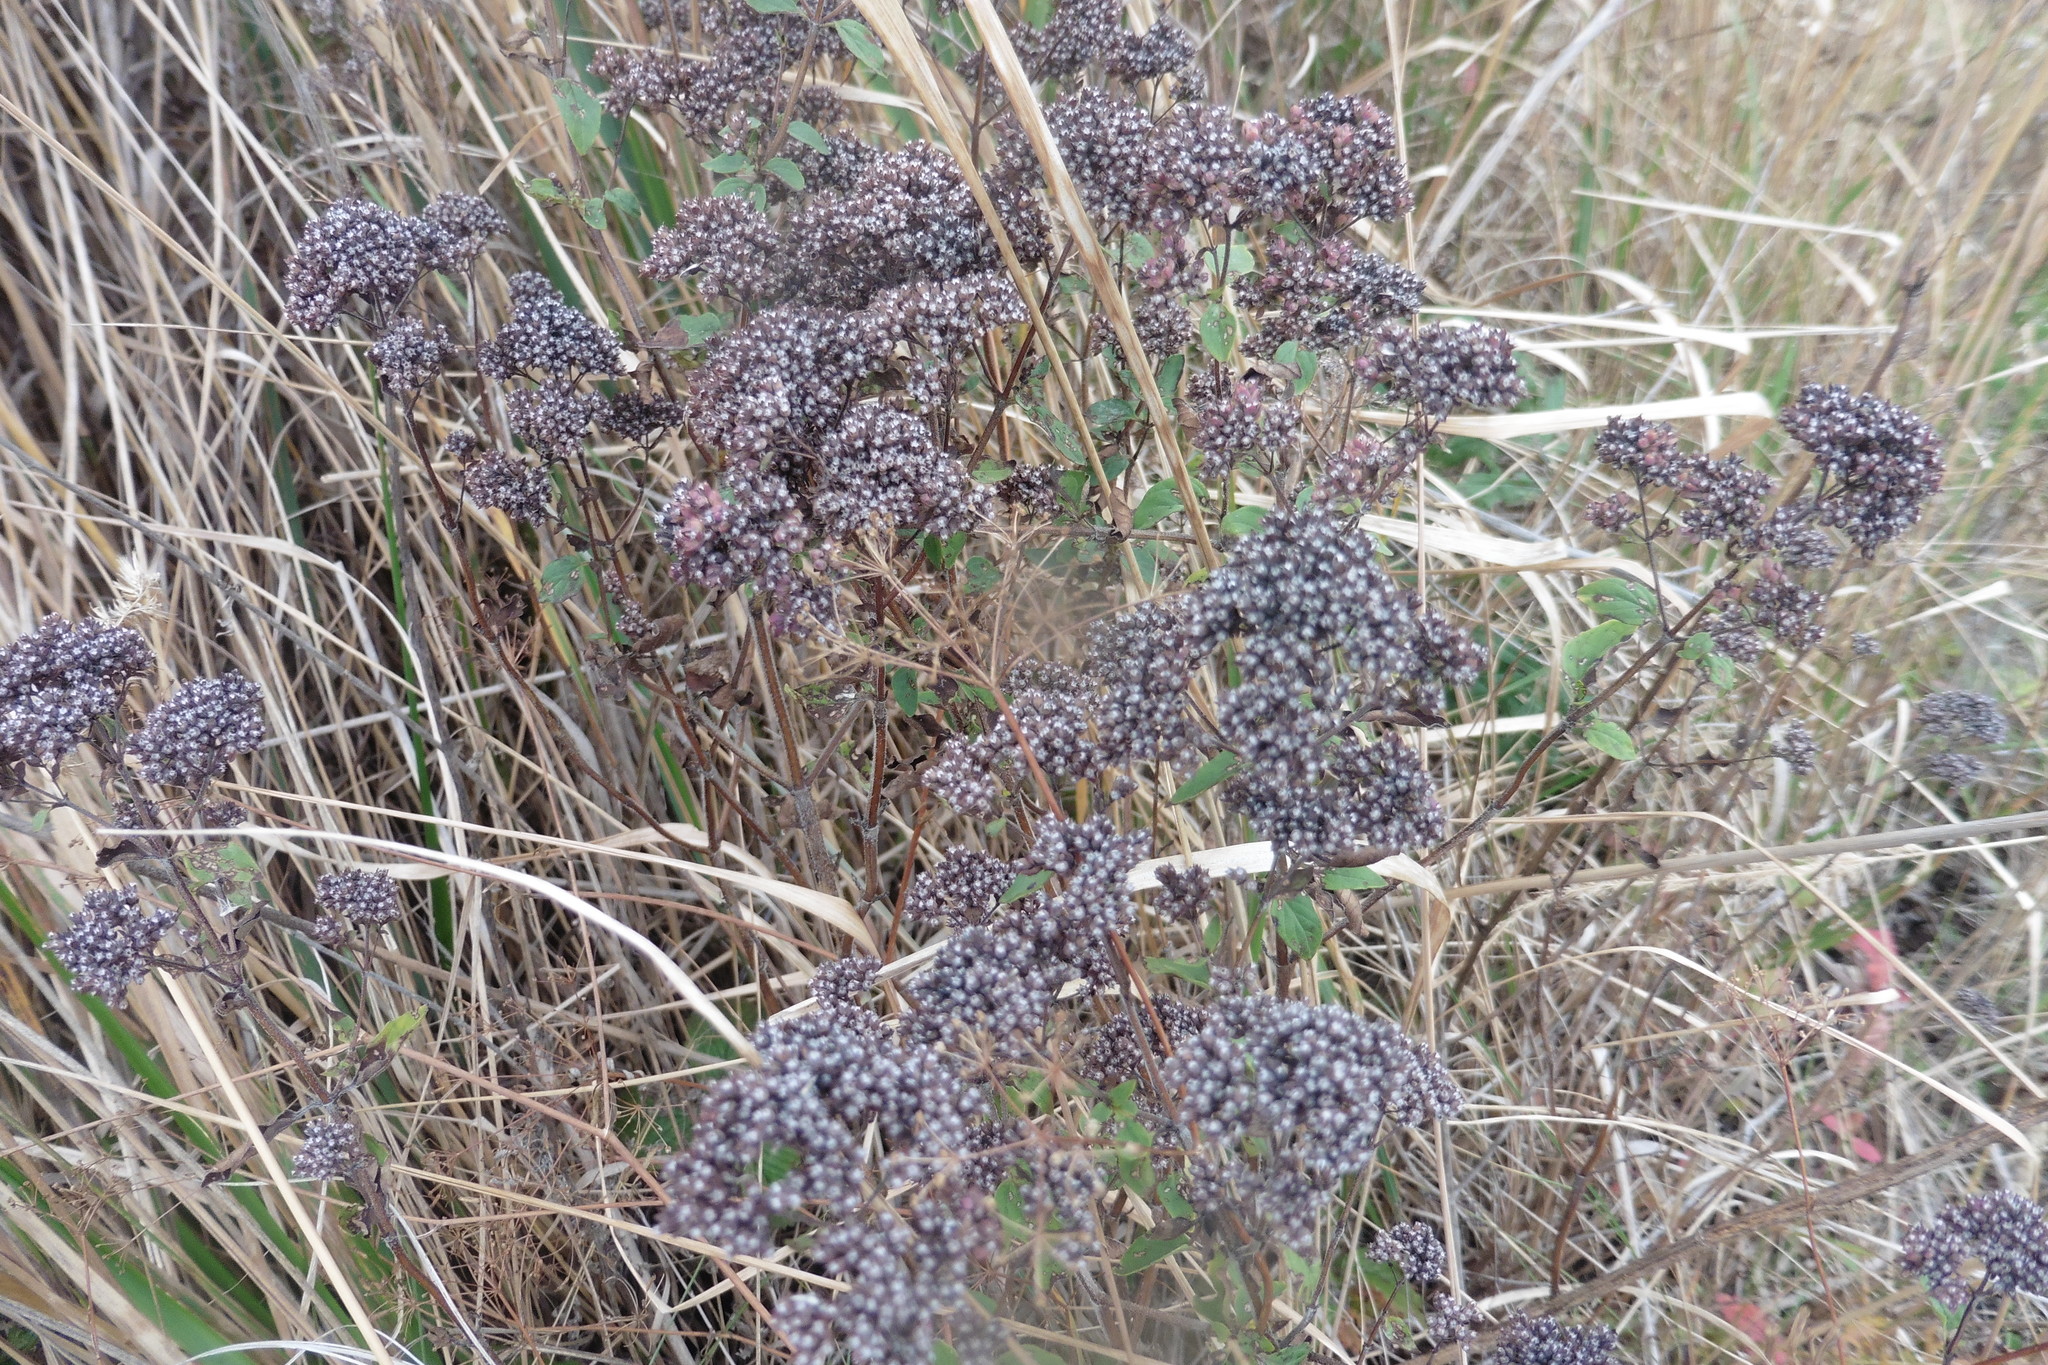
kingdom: Plantae
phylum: Tracheophyta
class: Magnoliopsida
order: Lamiales
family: Lamiaceae
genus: Origanum
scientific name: Origanum vulgare
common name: Wild marjoram
